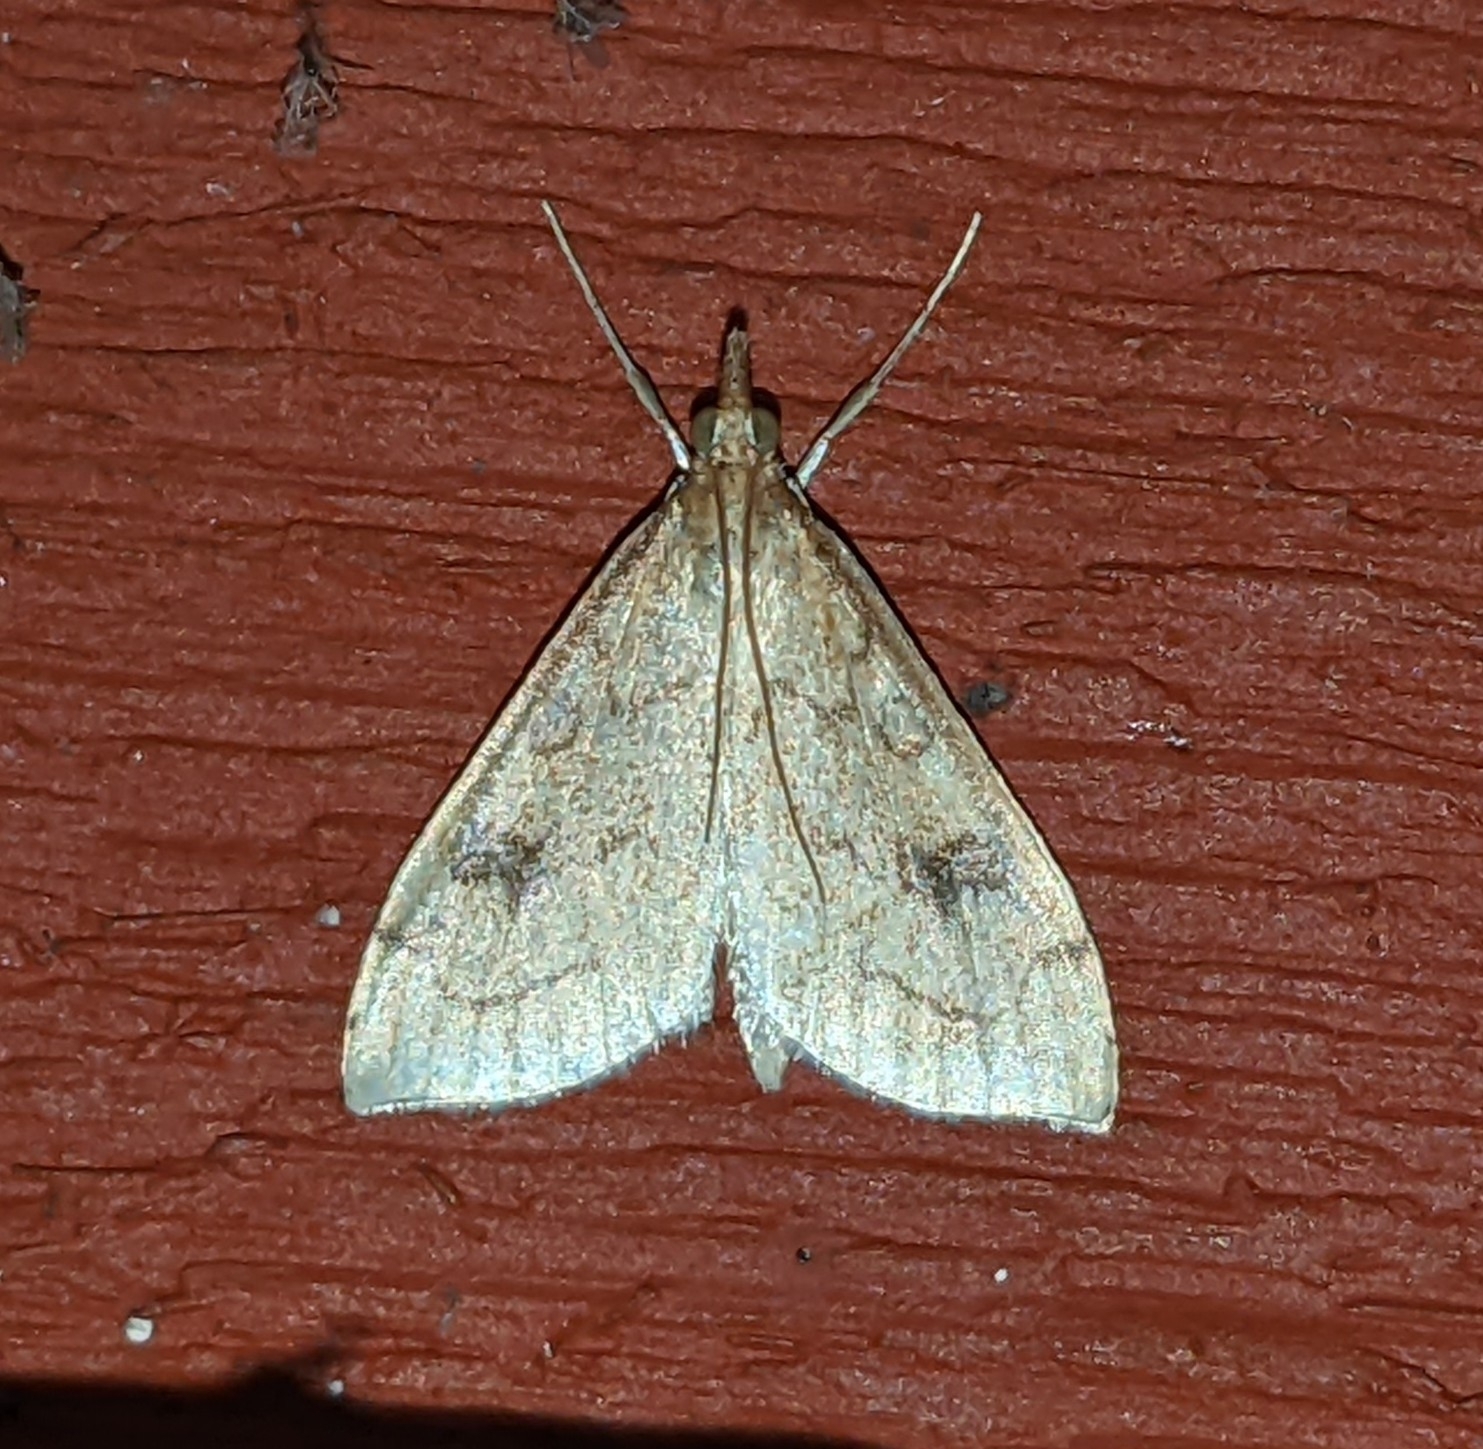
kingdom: Animalia
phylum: Arthropoda
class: Insecta
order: Lepidoptera
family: Crambidae
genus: Udea
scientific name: Udea profundalis
